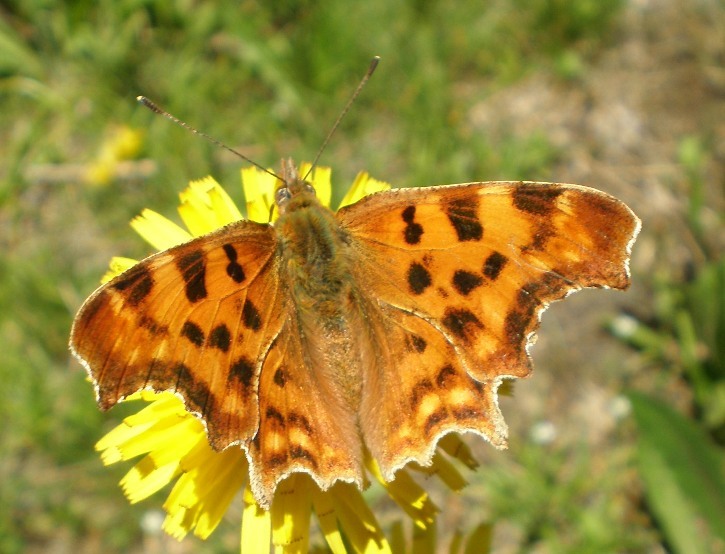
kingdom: Animalia
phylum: Arthropoda
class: Insecta
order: Lepidoptera
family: Nymphalidae
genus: Polygonia
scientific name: Polygonia c-album
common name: Comma
